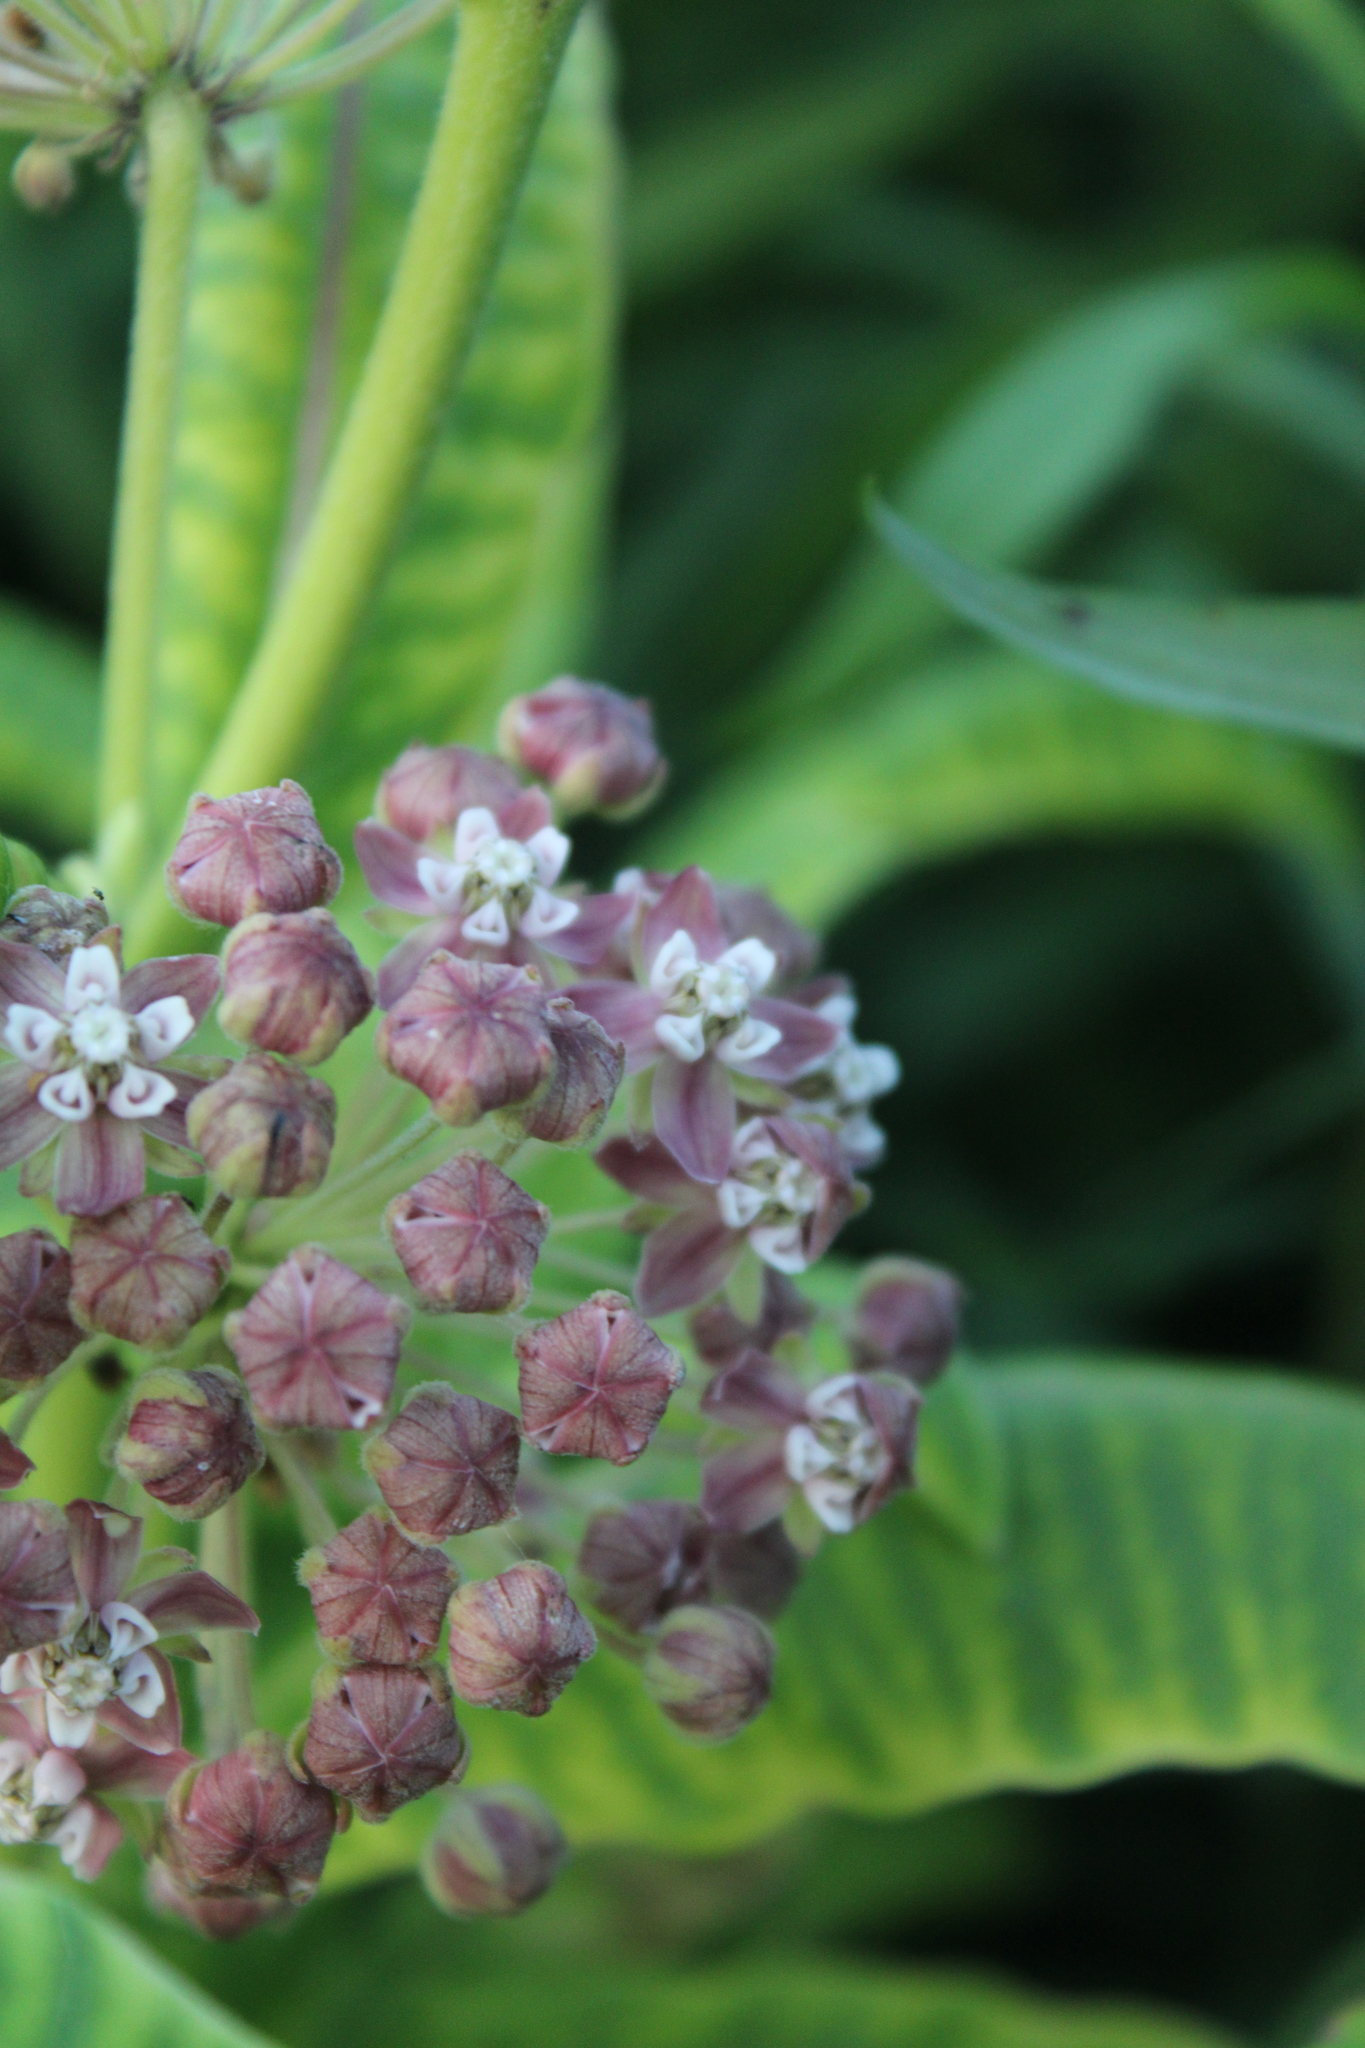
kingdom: Plantae
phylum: Tracheophyta
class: Magnoliopsida
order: Gentianales
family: Apocynaceae
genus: Asclepias
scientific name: Asclepias syriaca
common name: Common milkweed
